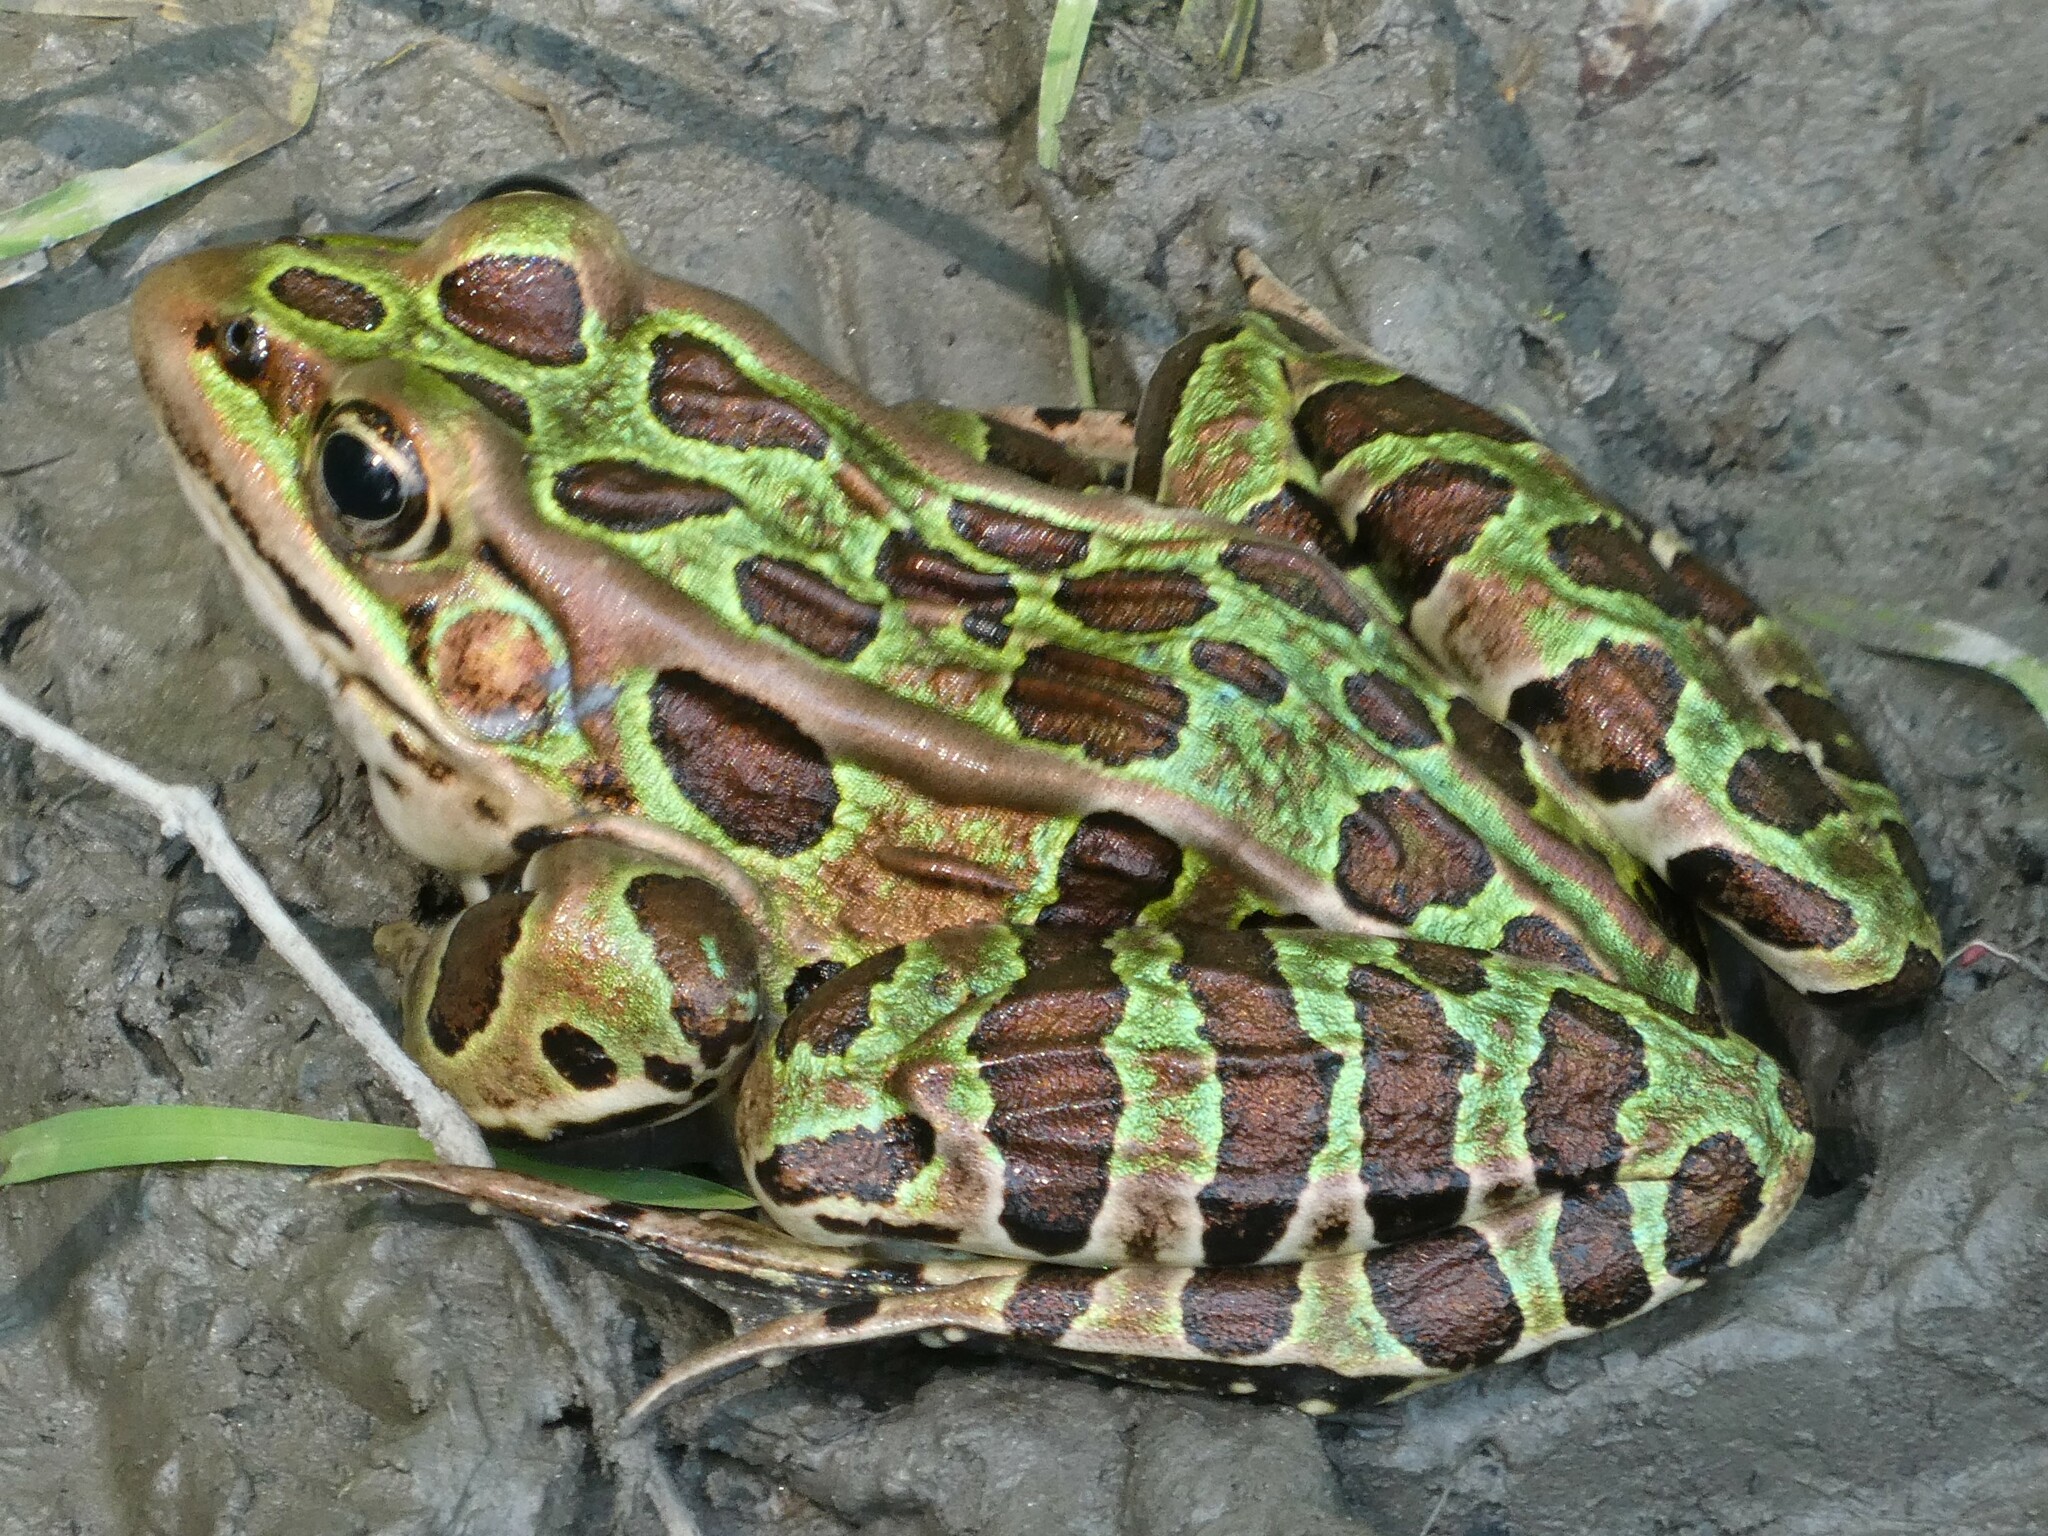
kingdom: Animalia
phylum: Chordata
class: Amphibia
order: Anura
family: Ranidae
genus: Lithobates
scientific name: Lithobates pipiens
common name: Northern leopard frog
